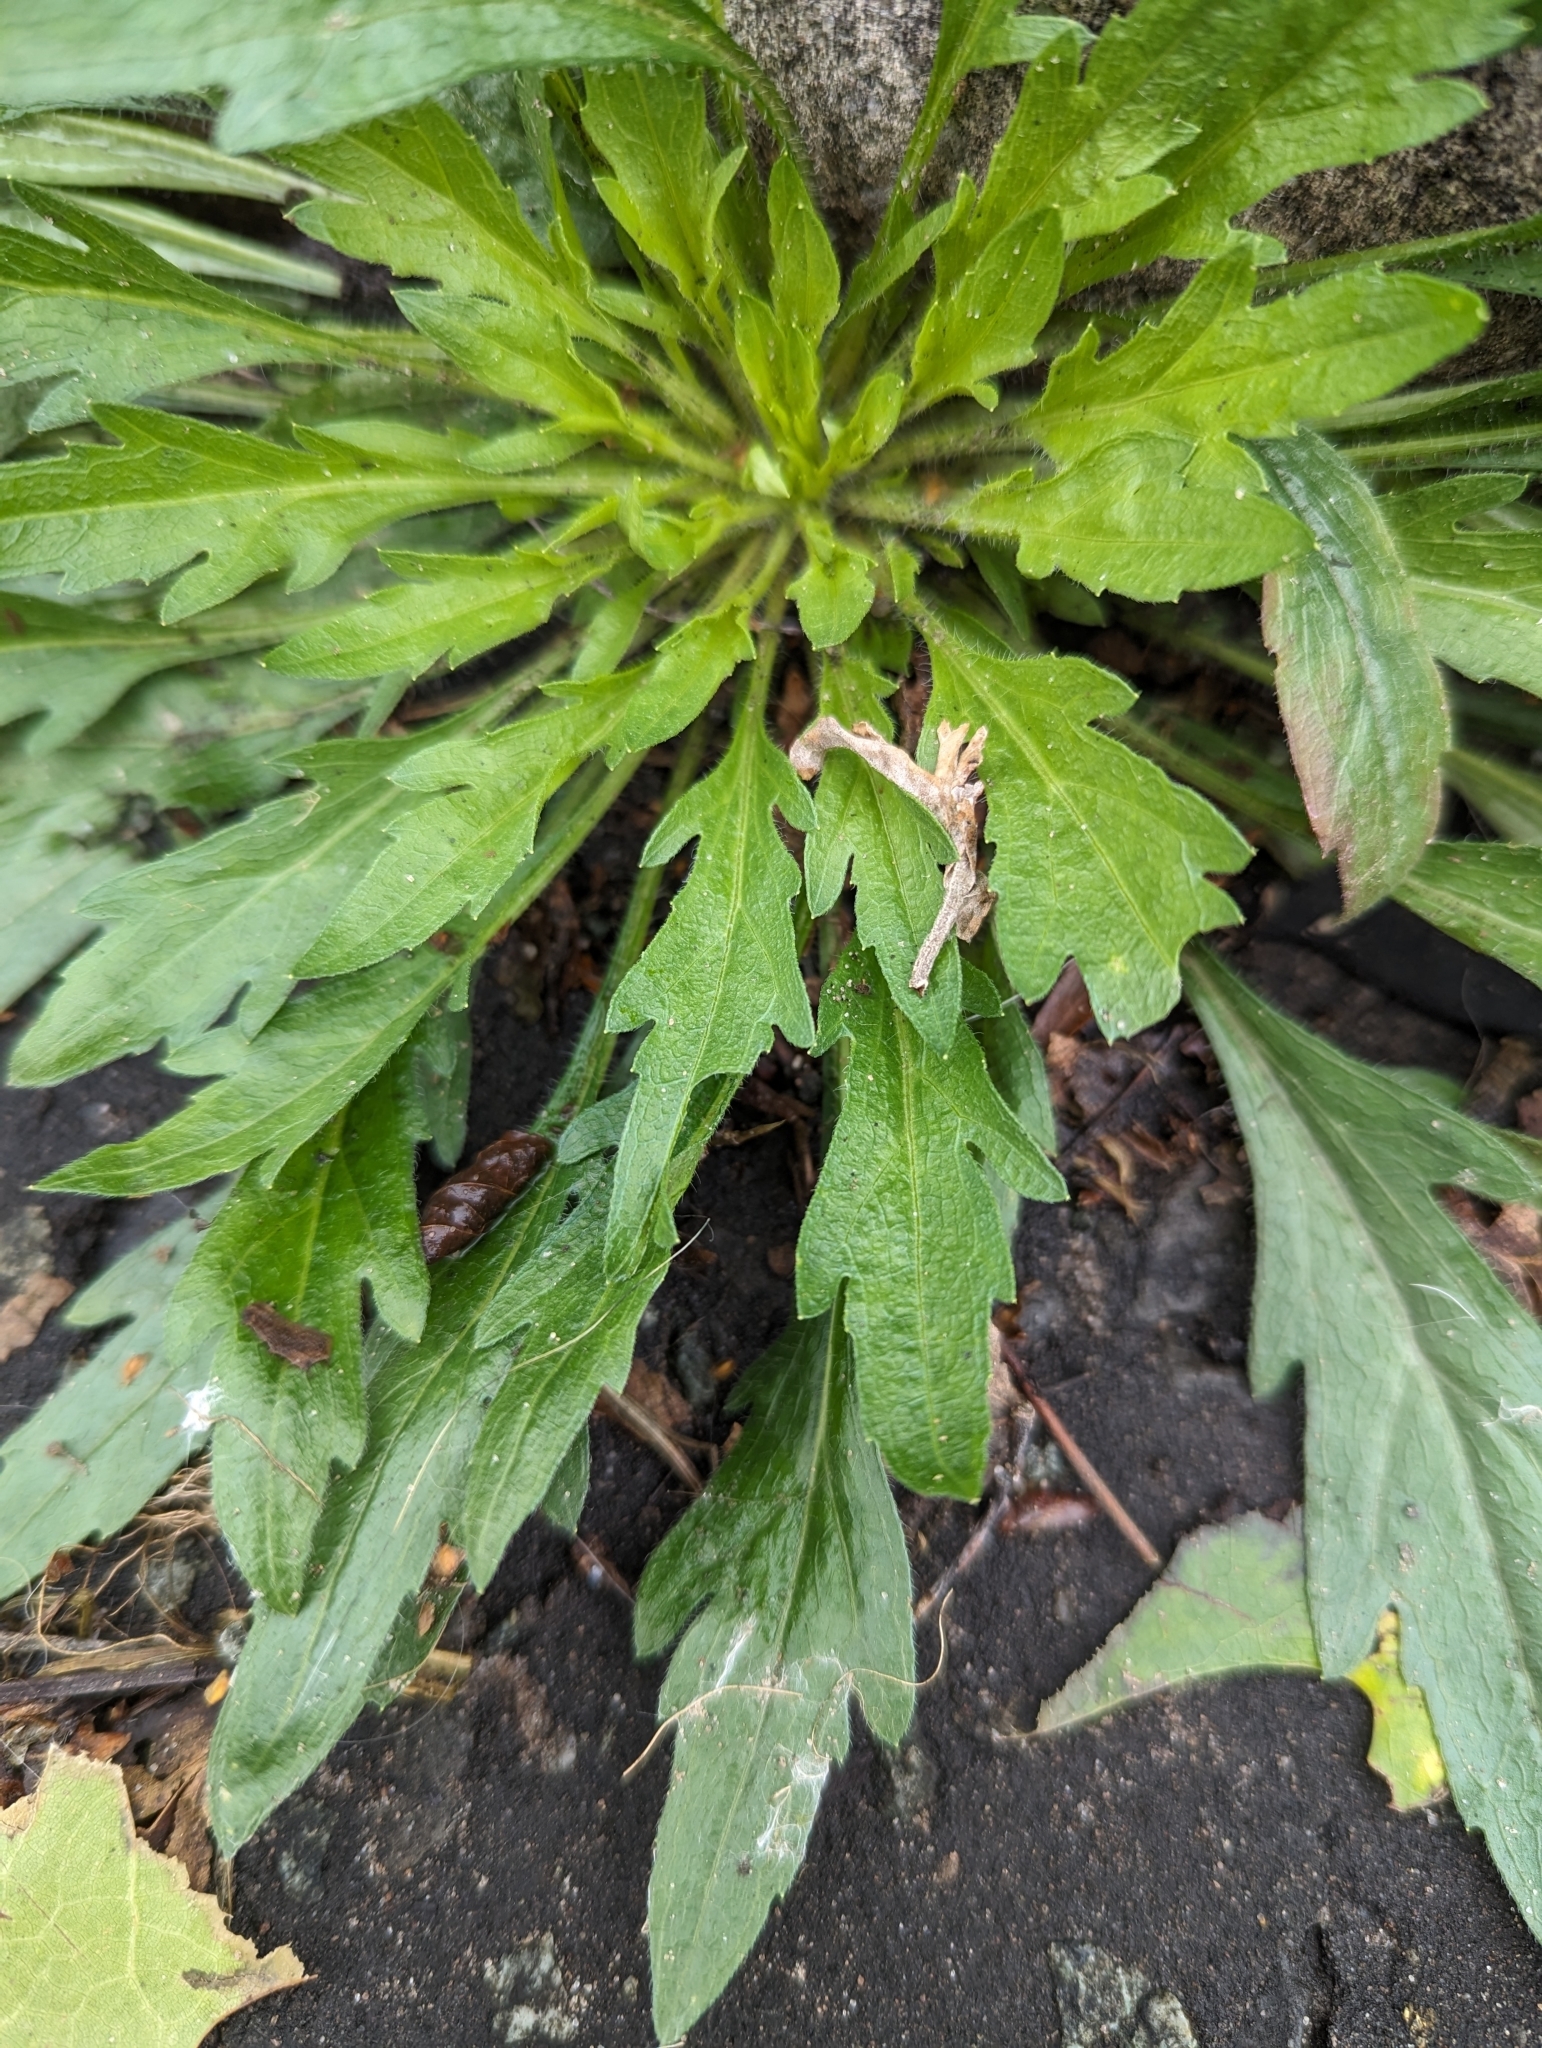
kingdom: Plantae
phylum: Tracheophyta
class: Magnoliopsida
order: Asterales
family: Asteraceae
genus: Erigeron
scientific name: Erigeron sumatrensis
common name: Daisy
